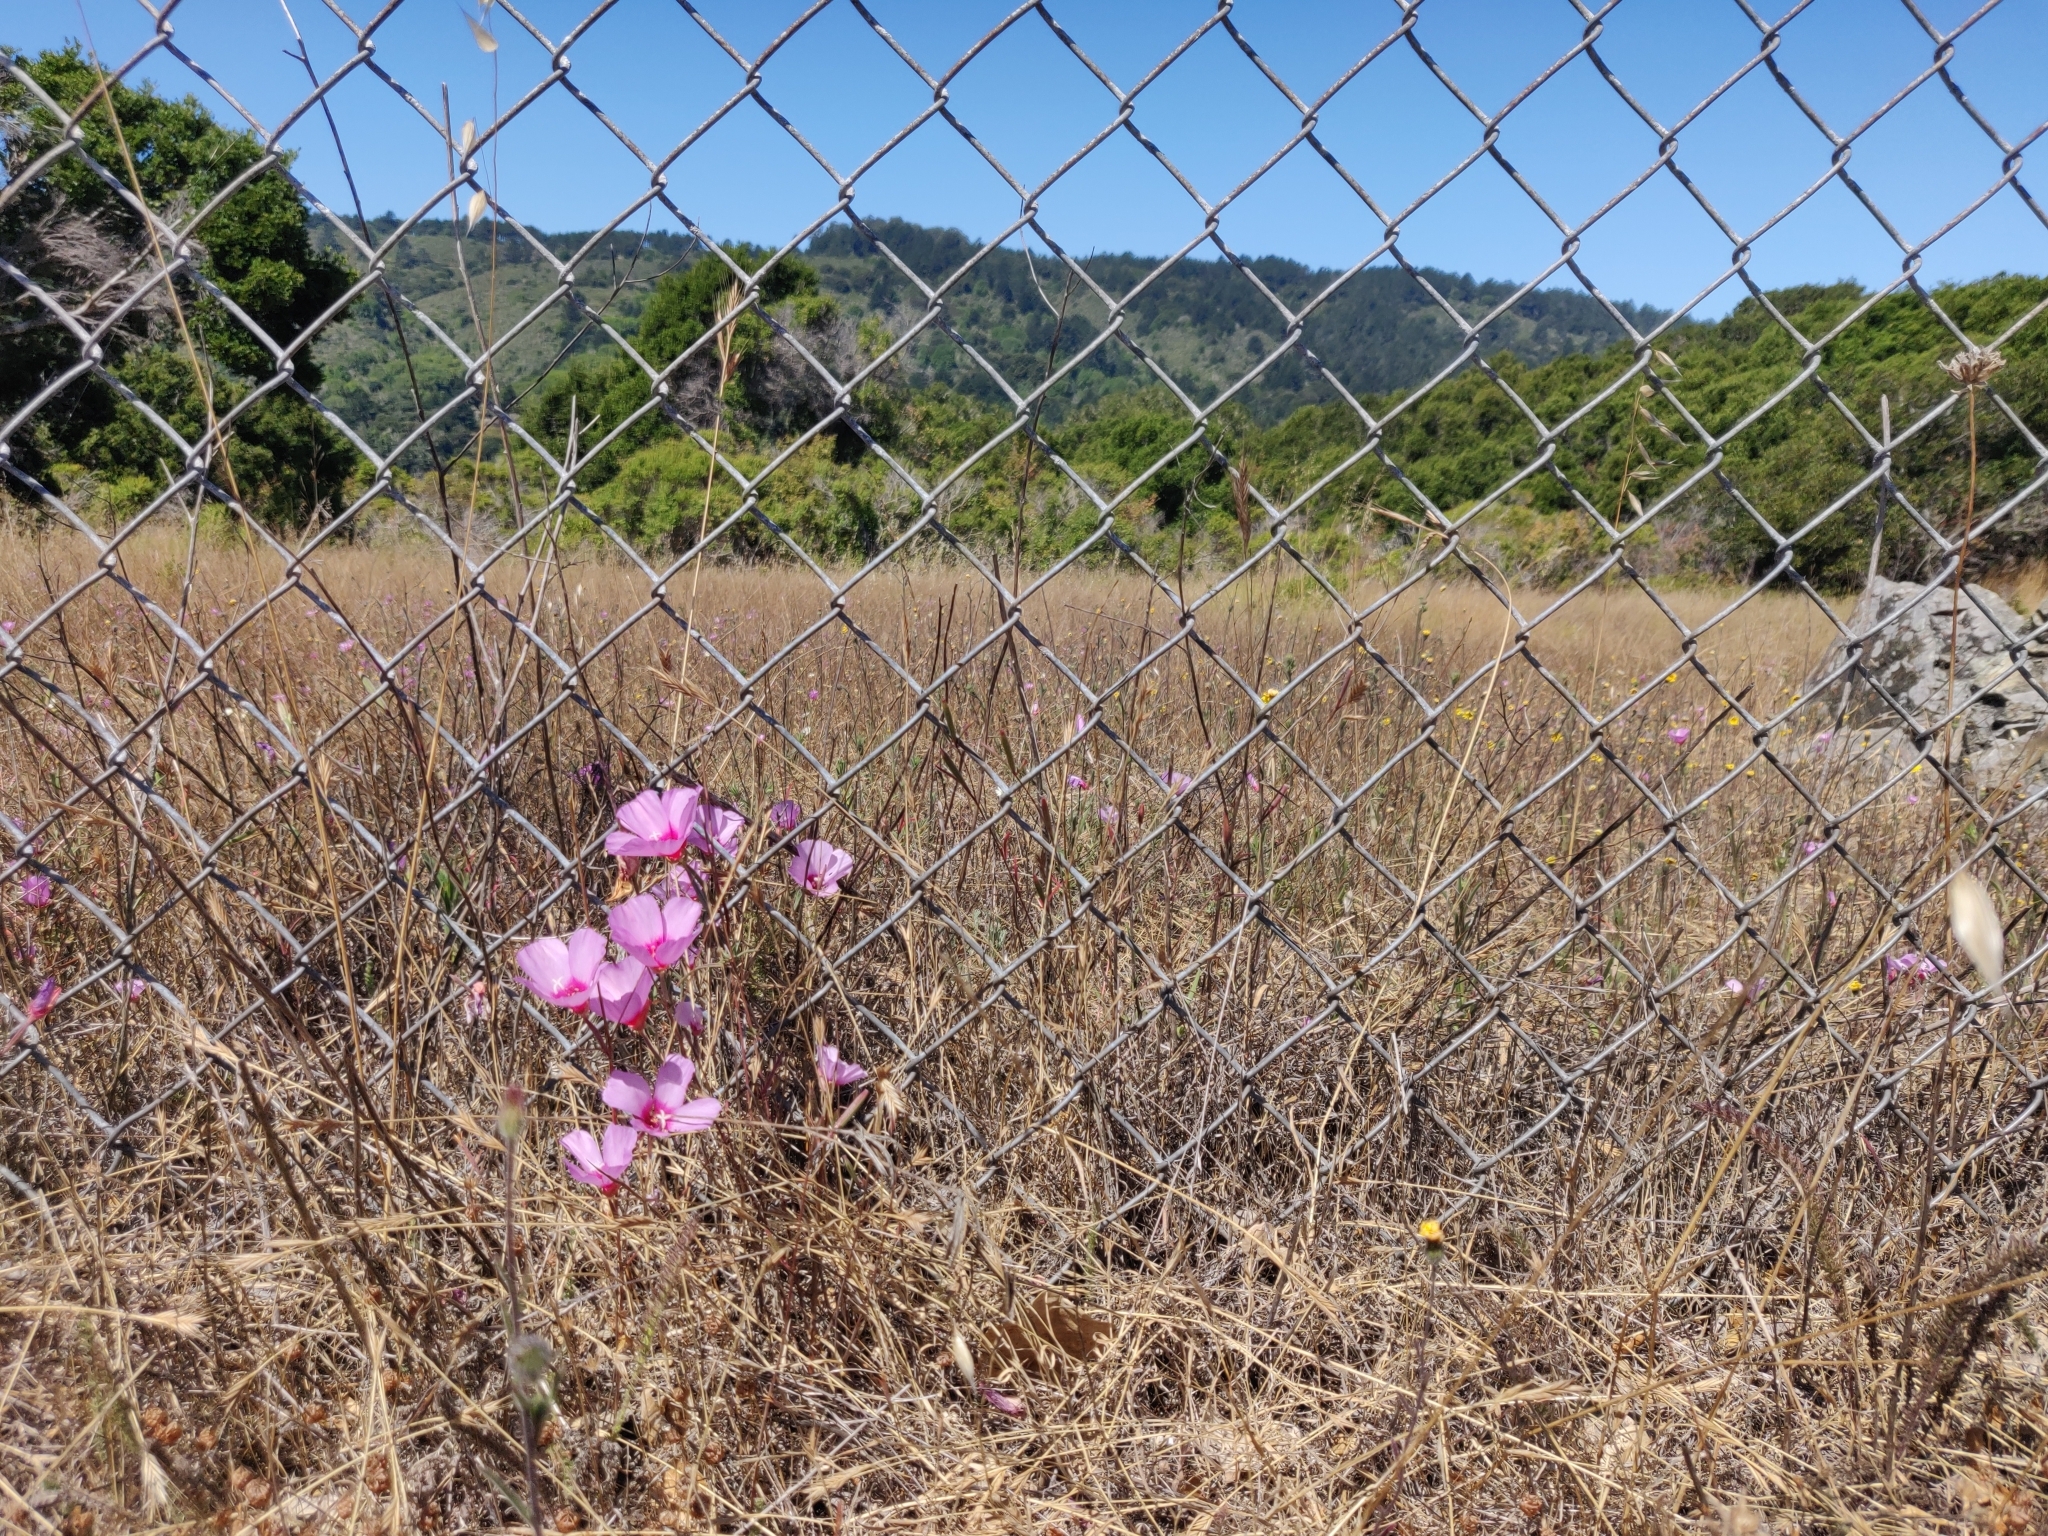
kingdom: Plantae
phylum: Tracheophyta
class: Magnoliopsida
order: Myrtales
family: Onagraceae
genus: Clarkia
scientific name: Clarkia rubicunda
